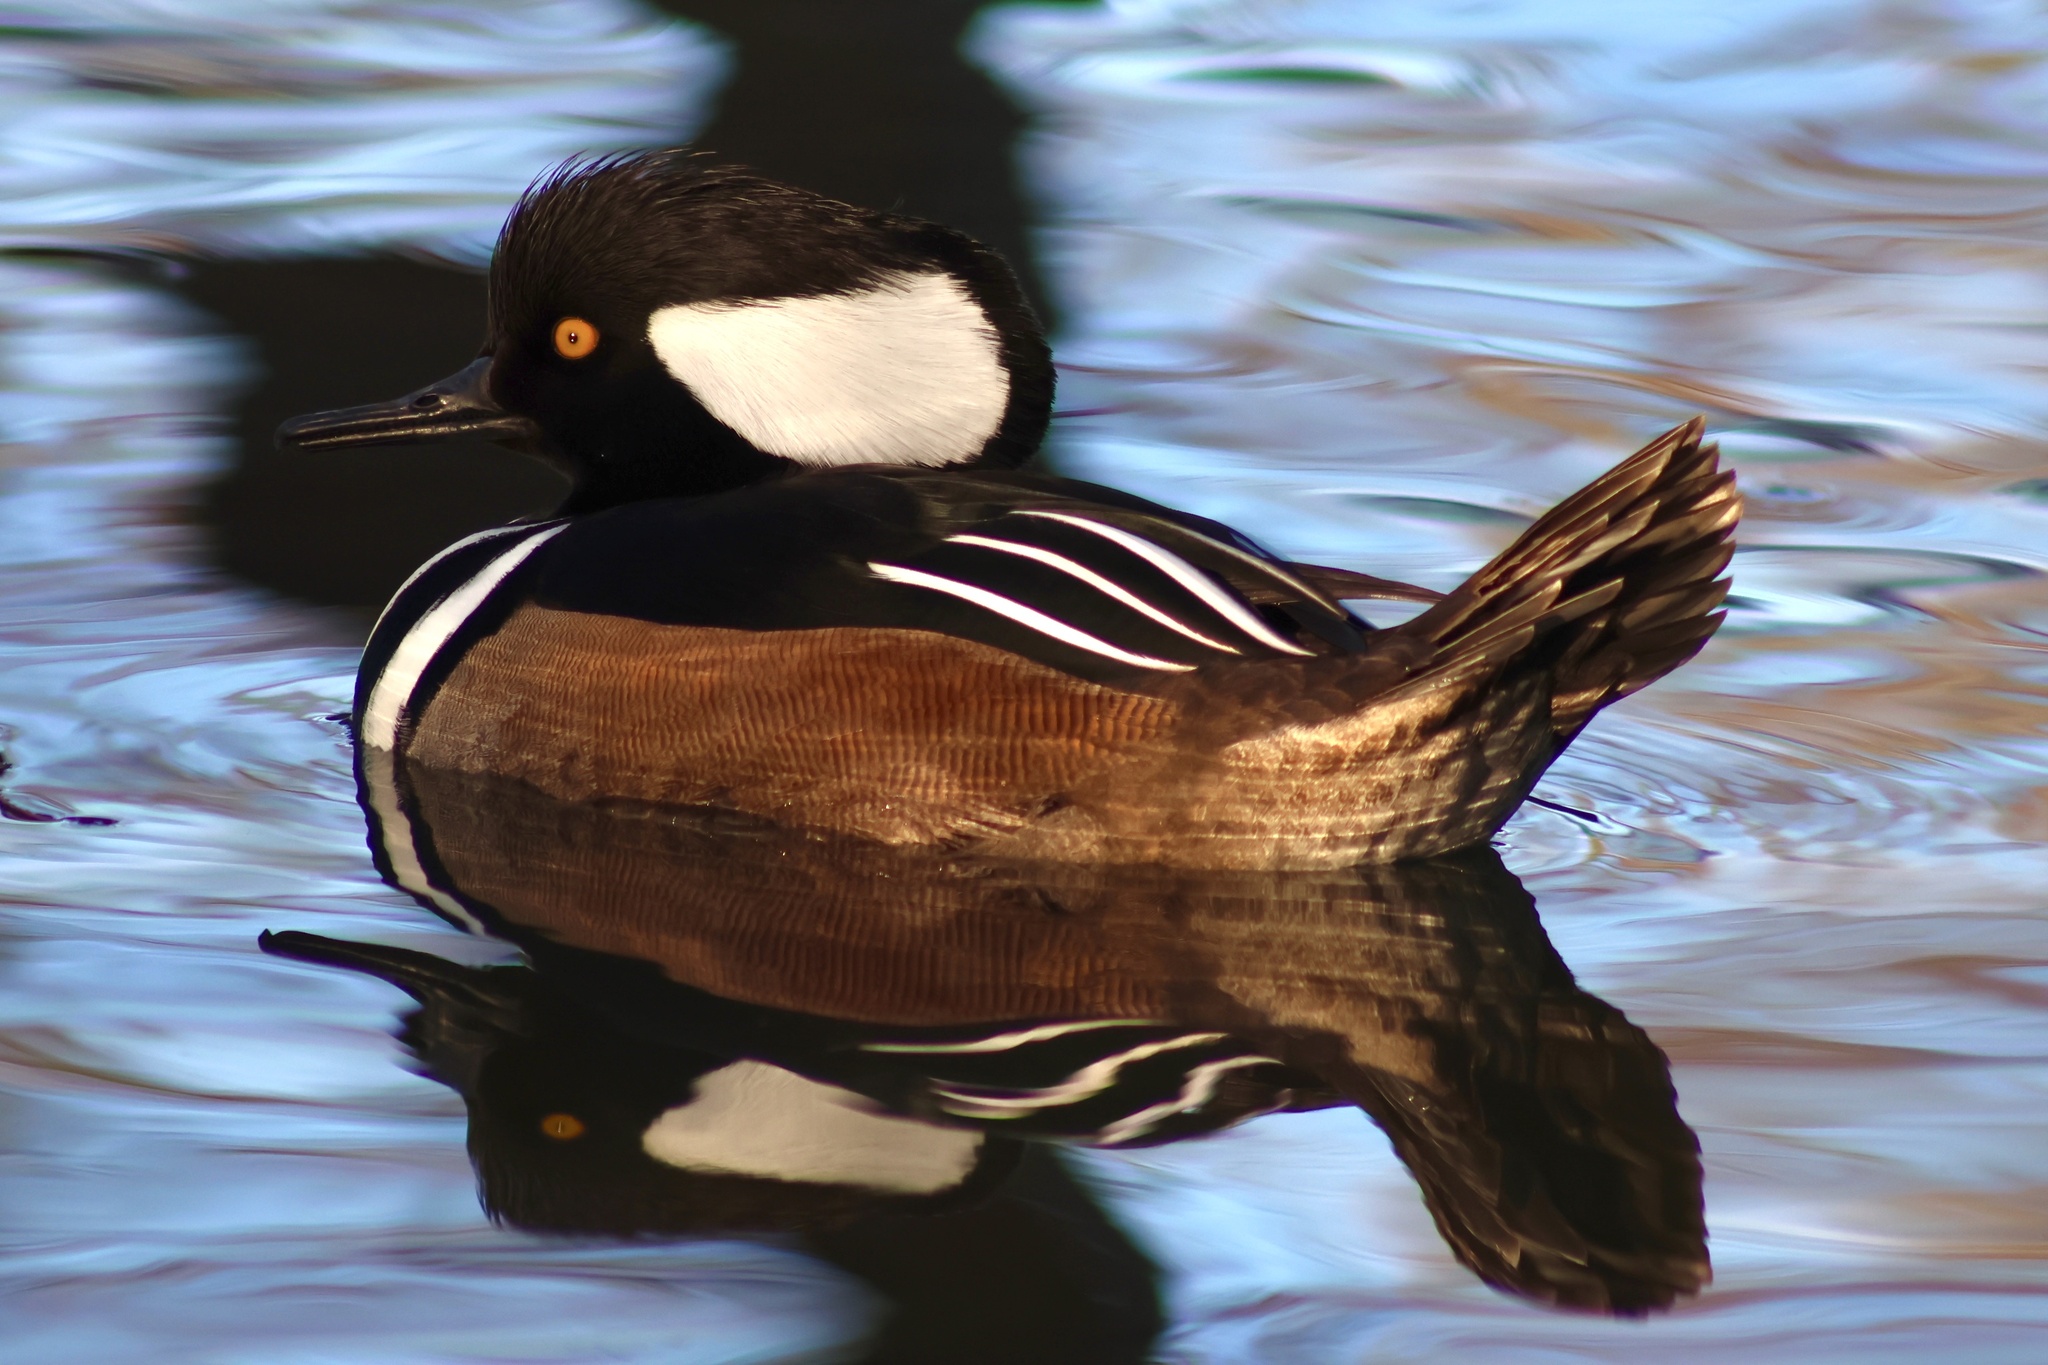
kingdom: Animalia
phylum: Chordata
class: Aves
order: Anseriformes
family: Anatidae
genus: Lophodytes
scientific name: Lophodytes cucullatus
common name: Hooded merganser
